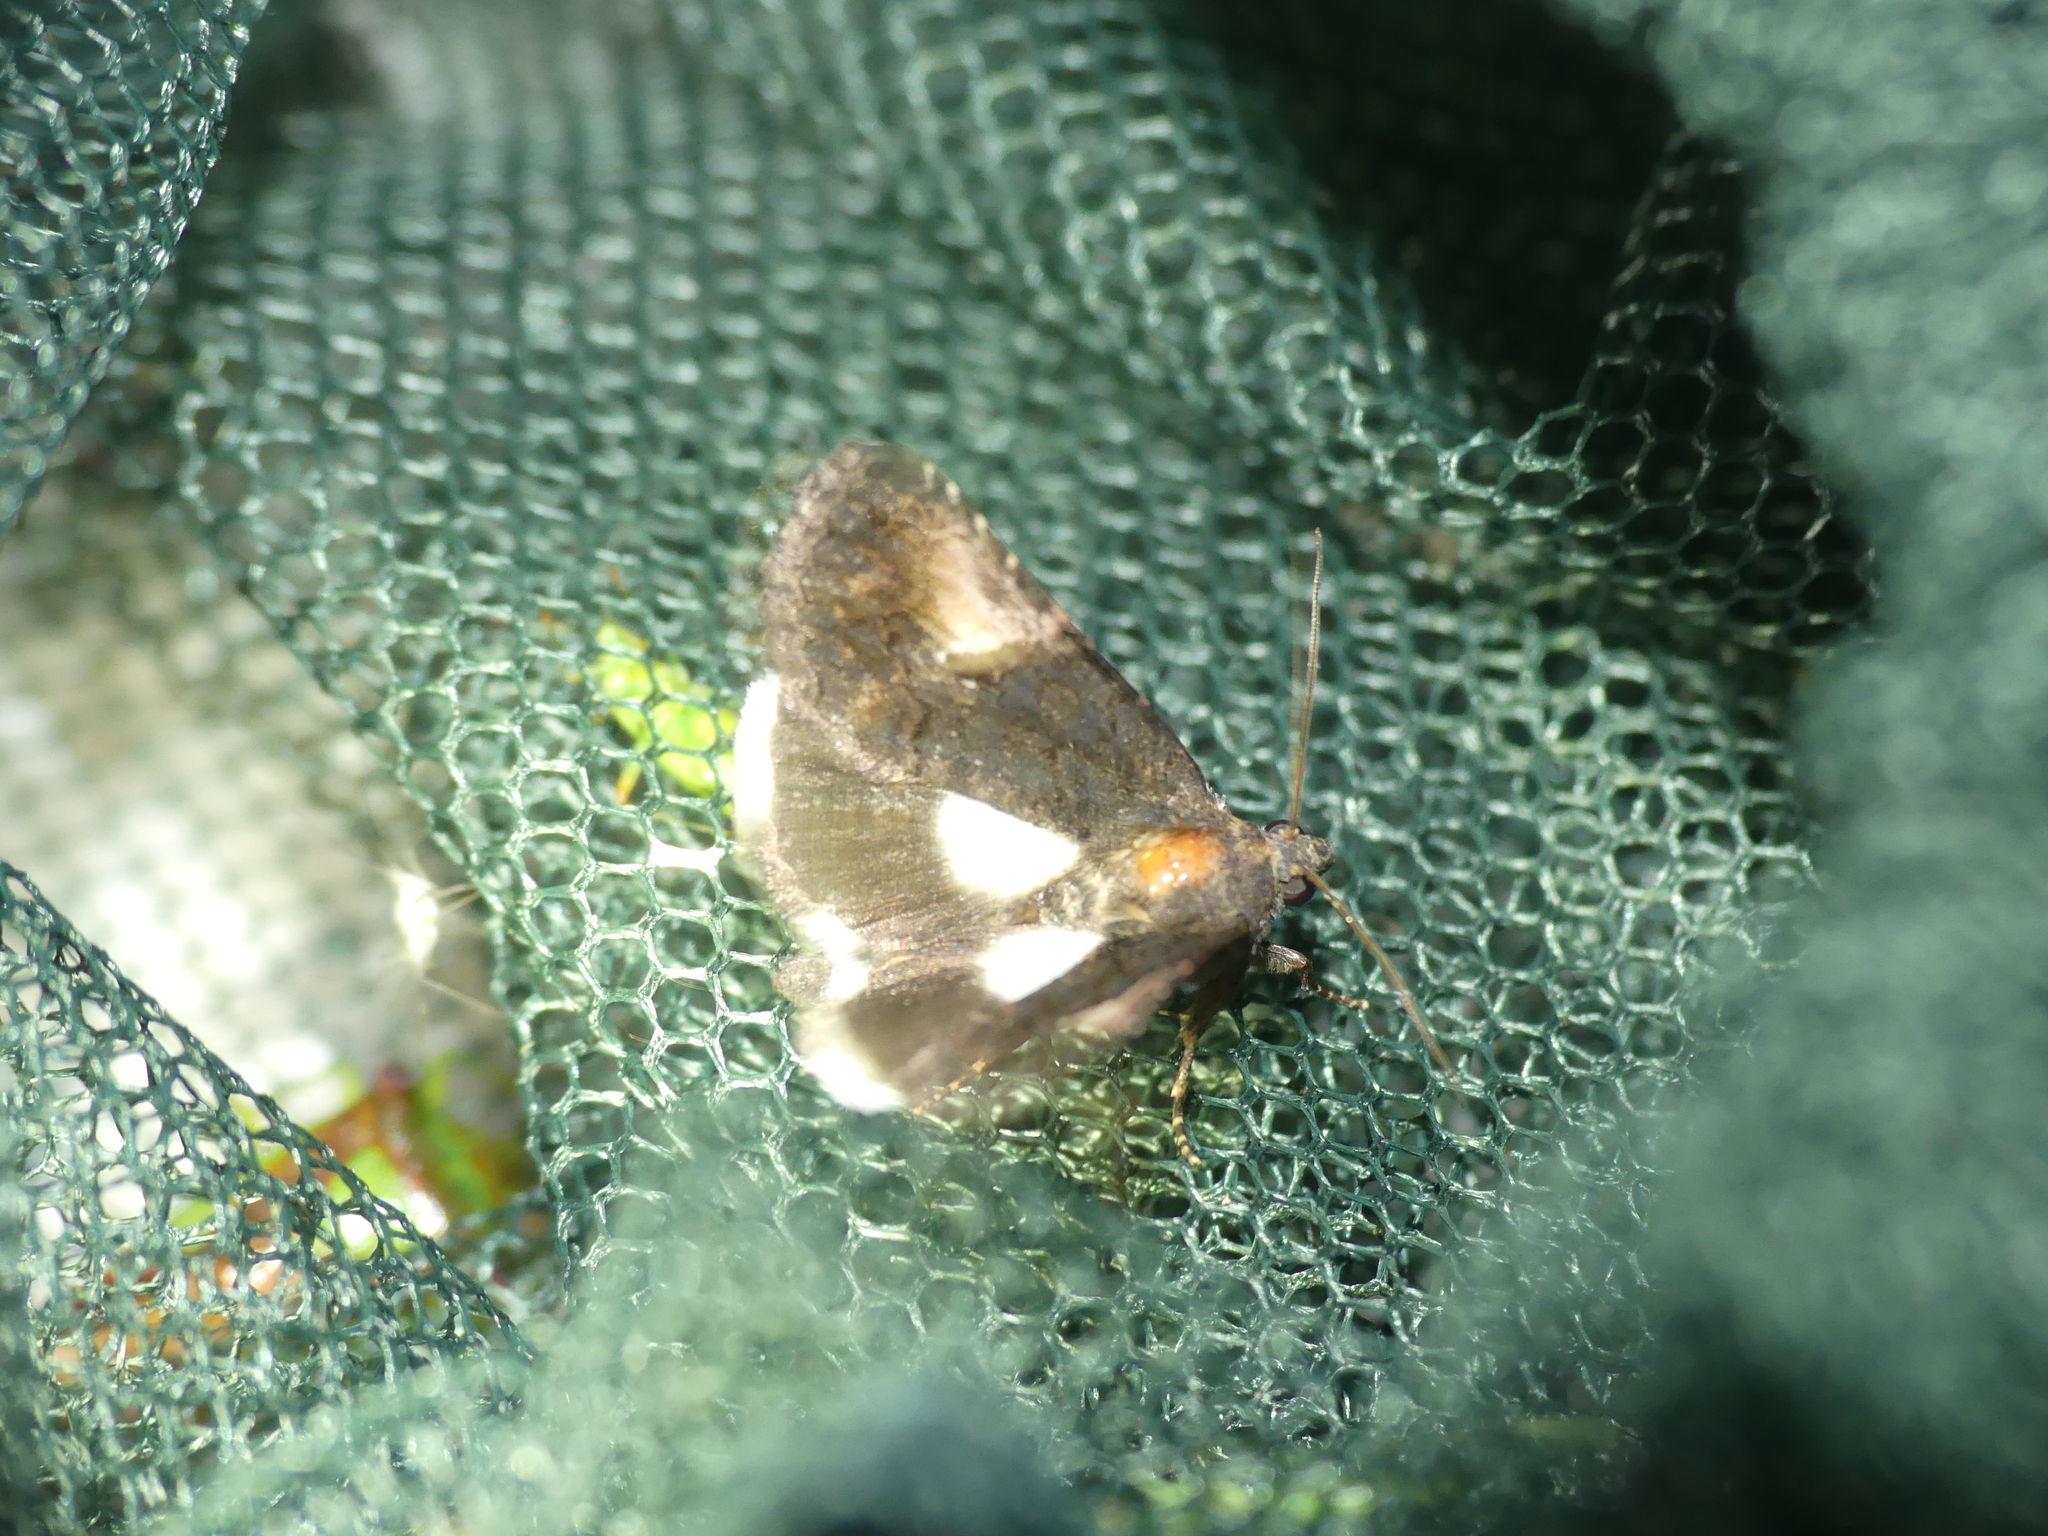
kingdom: Animalia
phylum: Arthropoda
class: Insecta
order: Lepidoptera
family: Noctuidae
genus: Aedia
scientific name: Aedia funesta
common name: The druid
